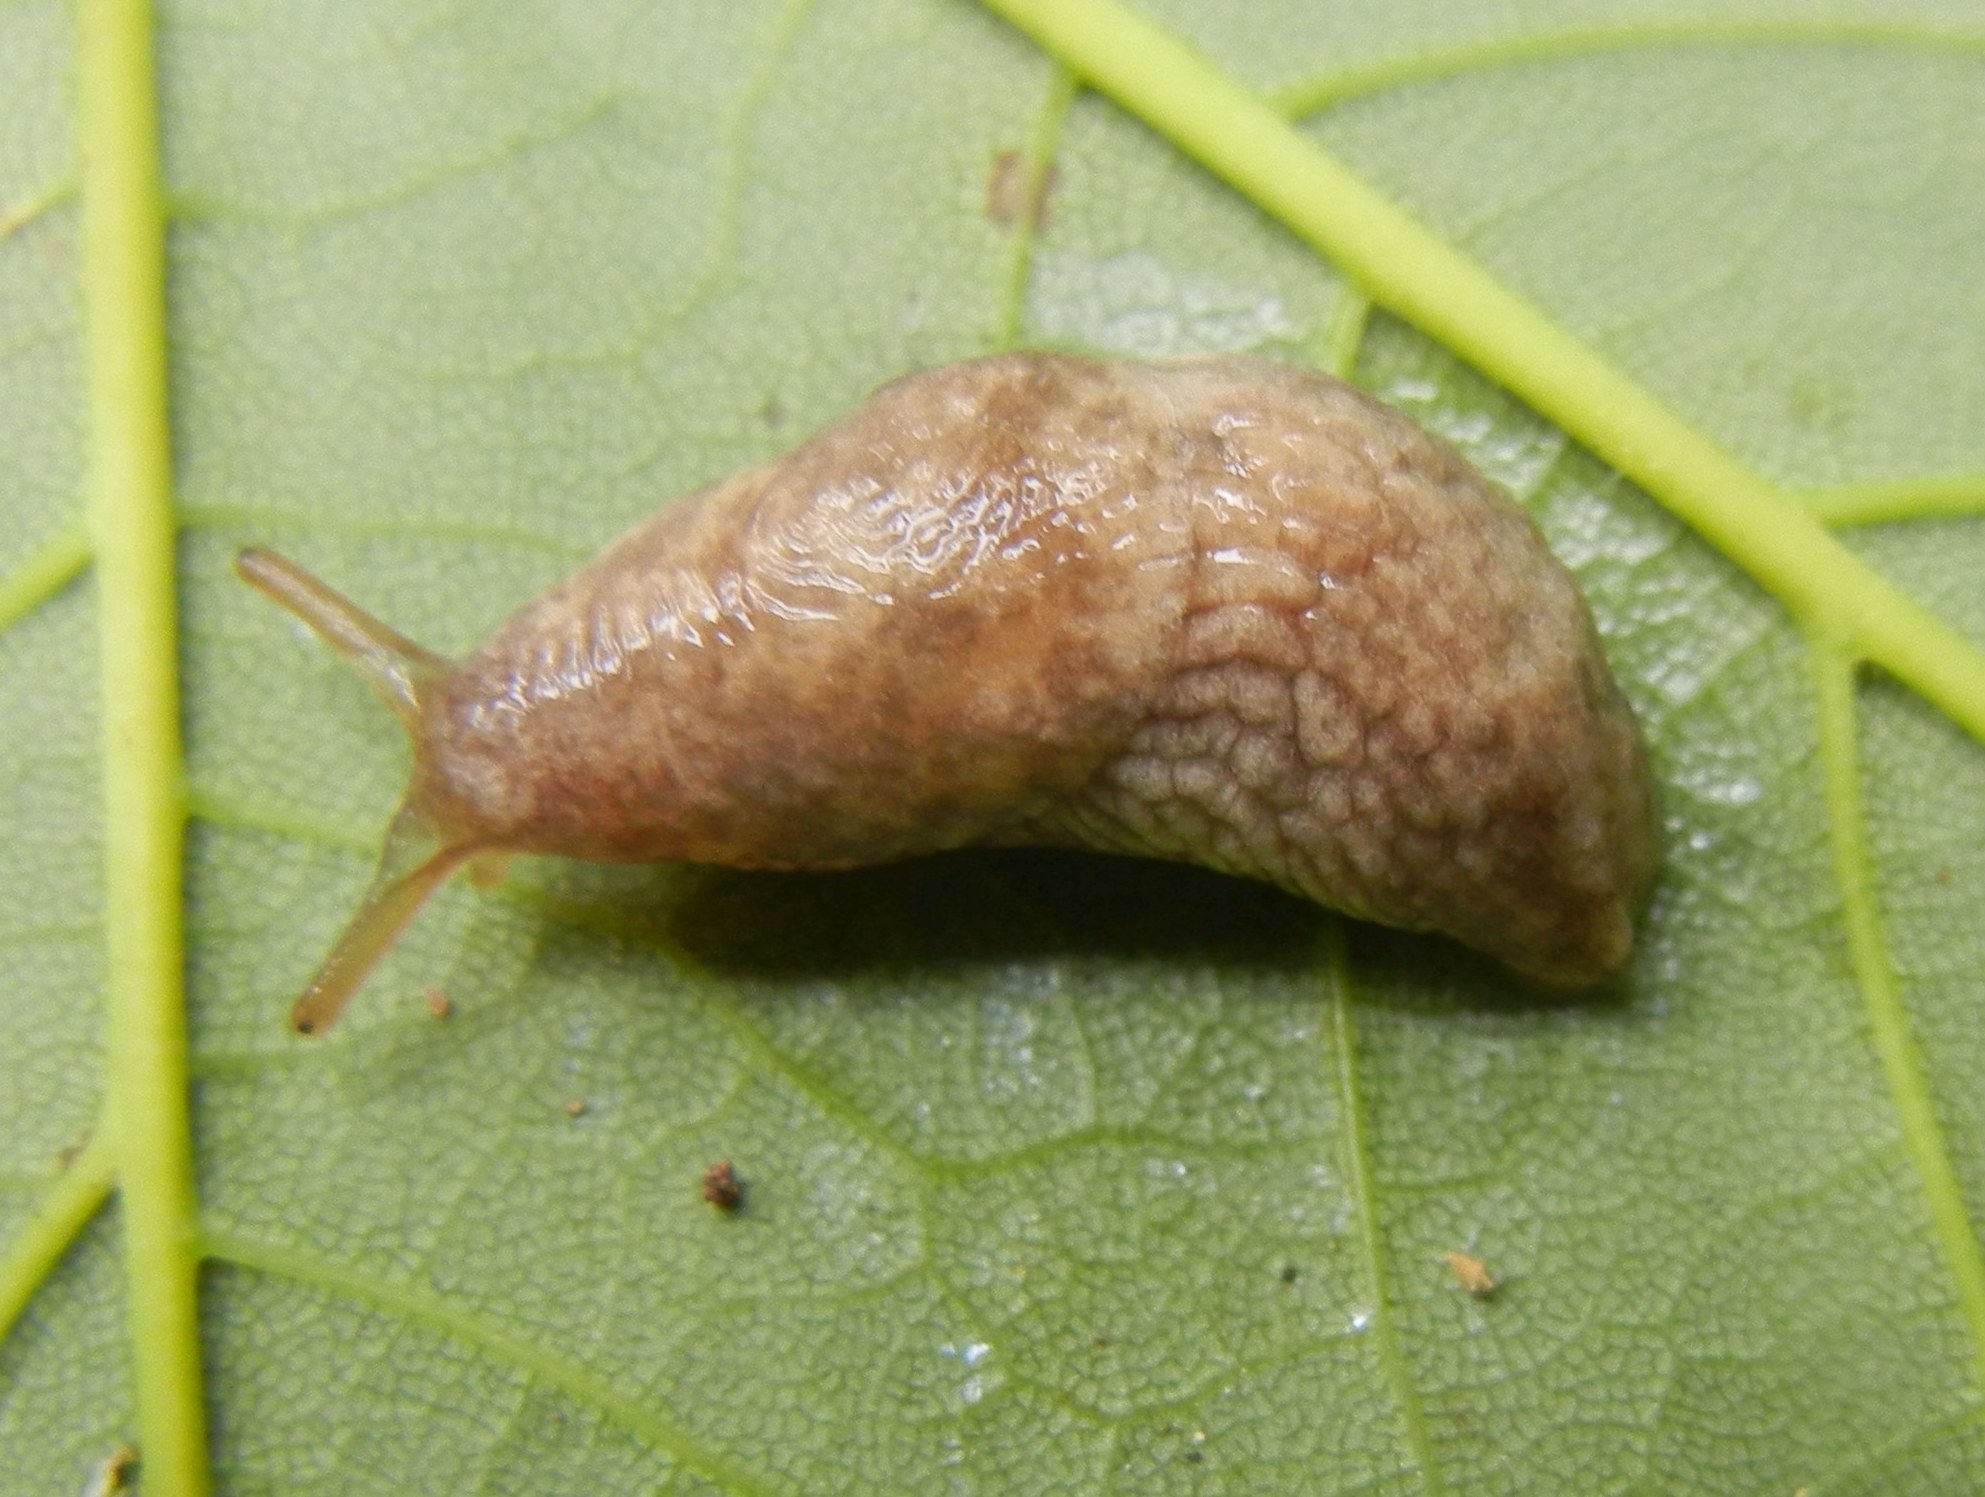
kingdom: Animalia
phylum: Mollusca
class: Gastropoda
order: Stylommatophora
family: Agriolimacidae
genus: Deroceras
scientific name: Deroceras reticulatum
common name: Gray field slug
